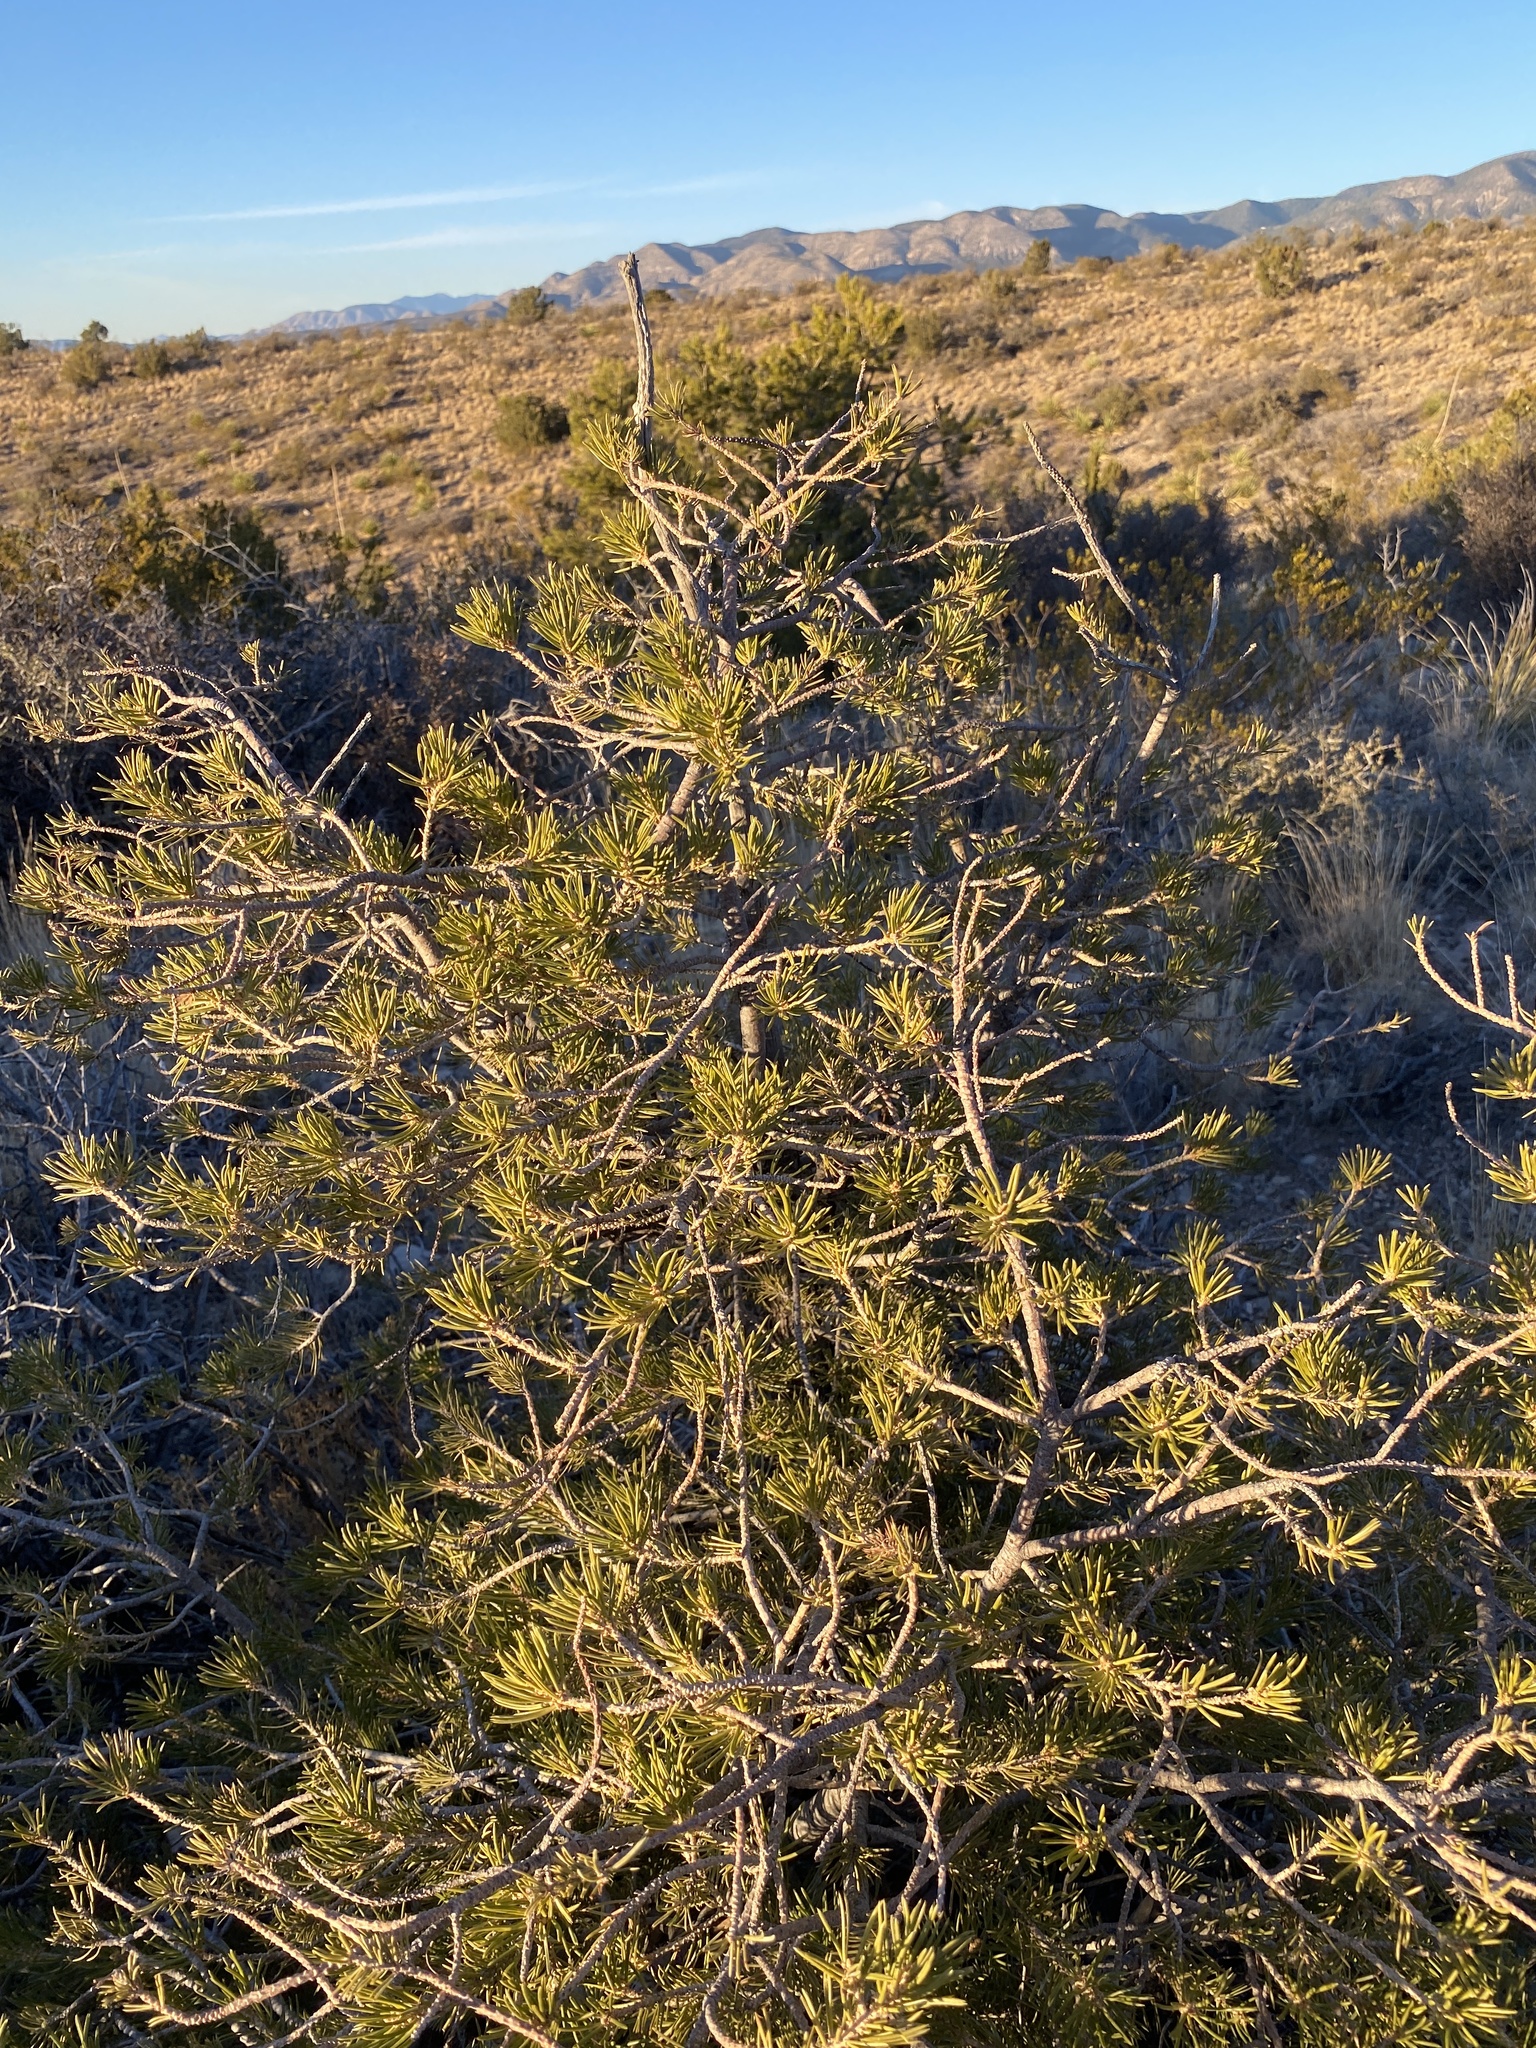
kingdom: Plantae
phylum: Tracheophyta
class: Pinopsida
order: Pinales
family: Pinaceae
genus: Pinus
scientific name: Pinus edulis
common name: Colorado pinyon
